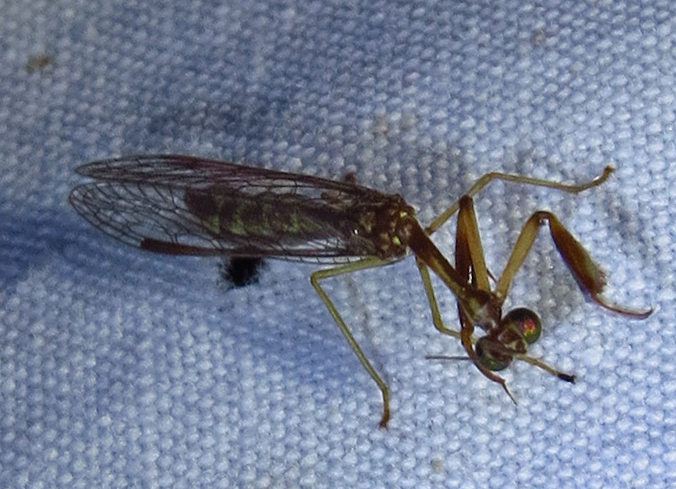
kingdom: Animalia
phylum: Arthropoda
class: Insecta
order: Neuroptera
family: Mantispidae
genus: Leptomantispa
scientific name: Leptomantispa pulchella
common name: Stevens's mantidfly
